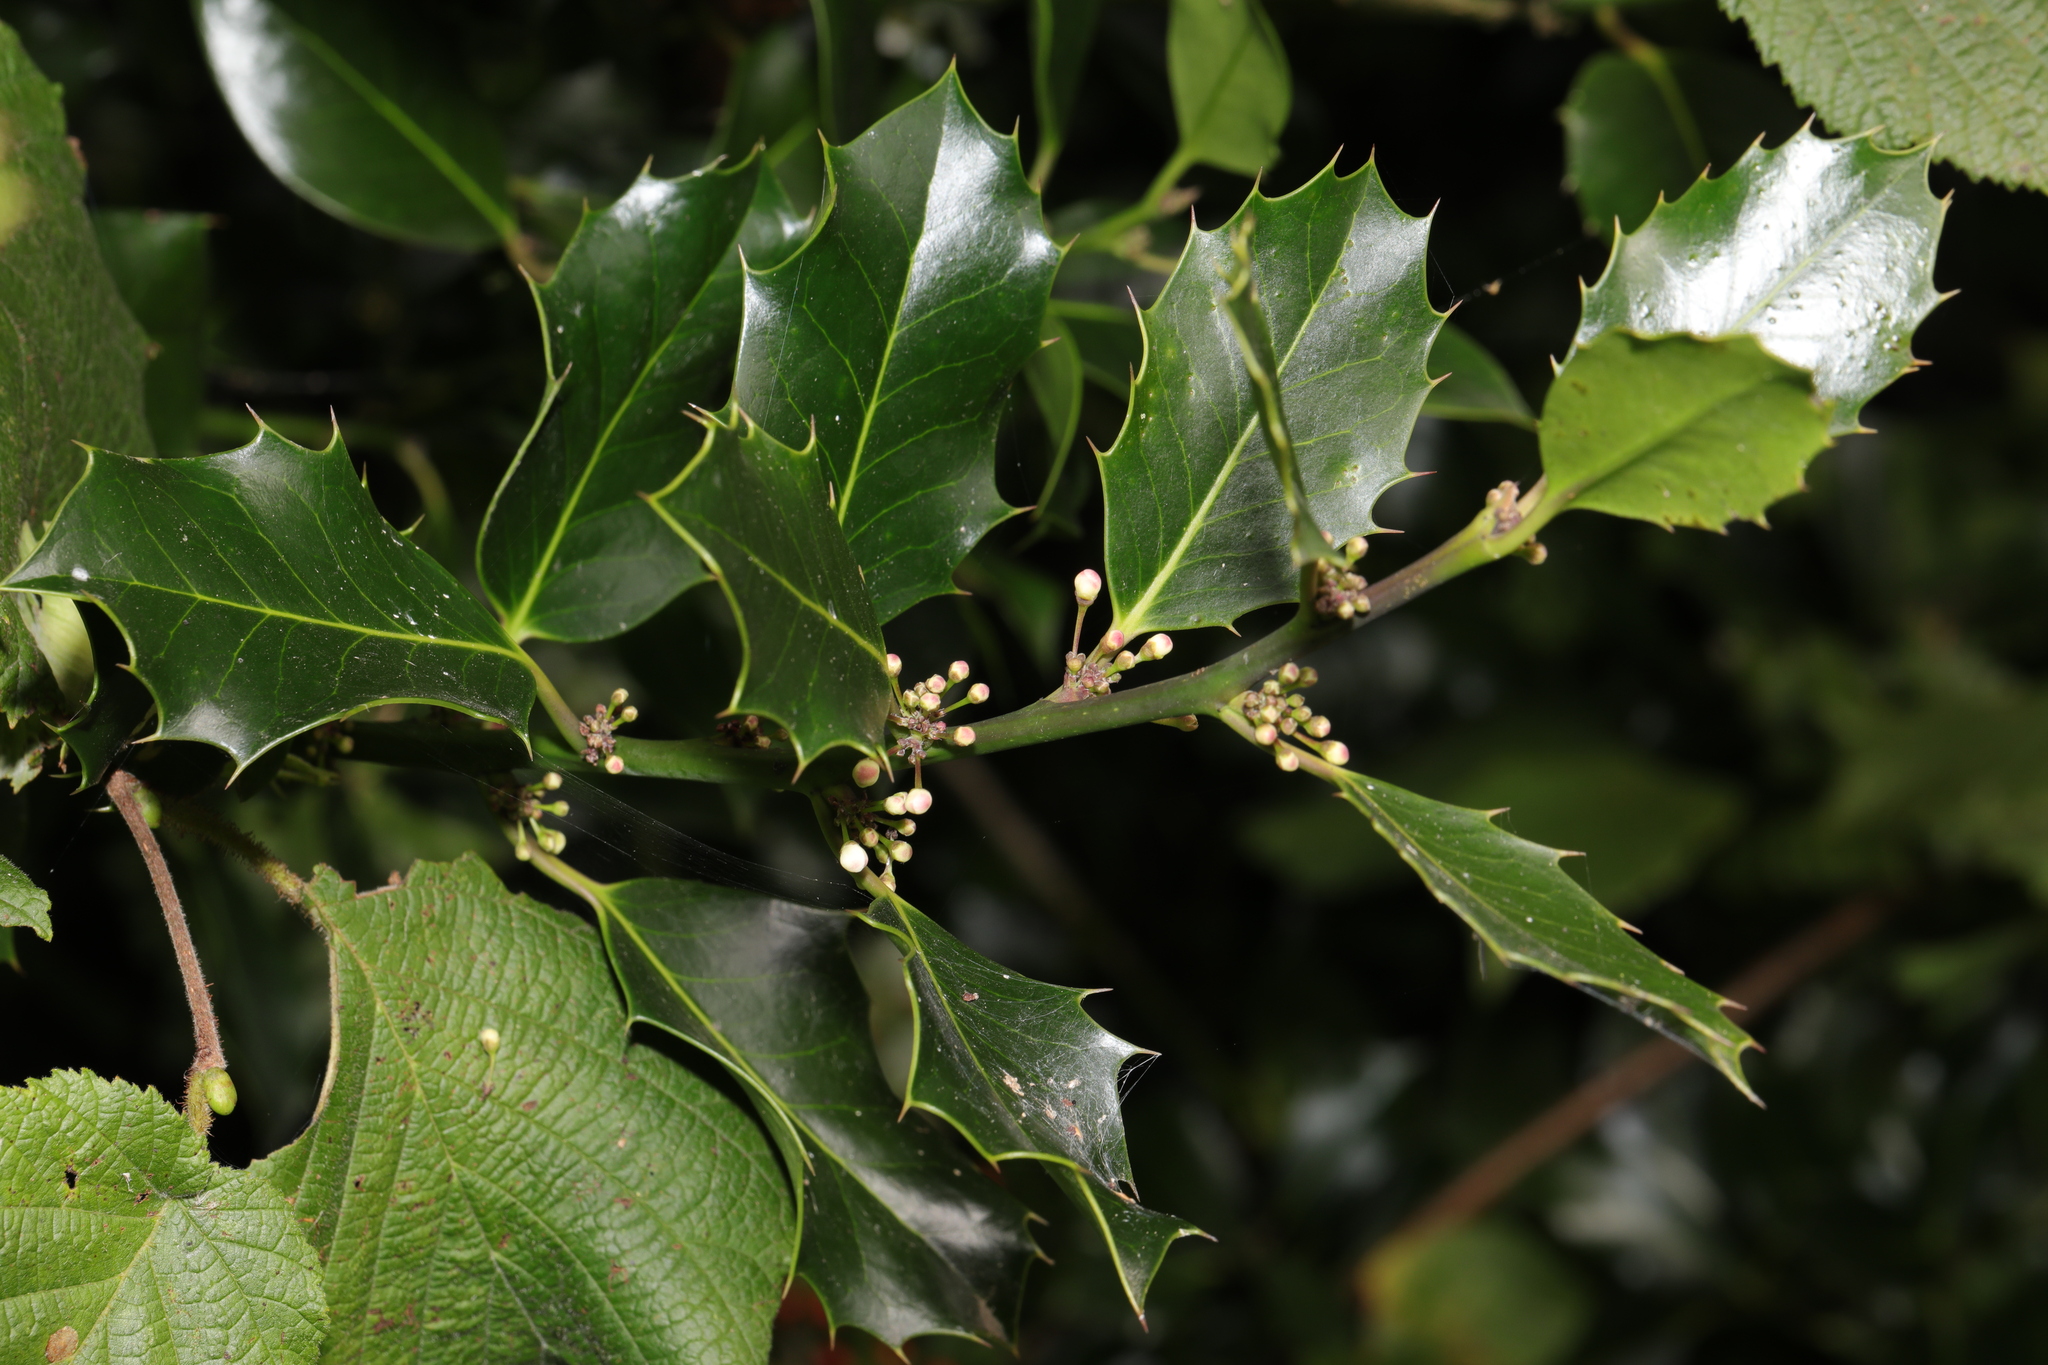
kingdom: Plantae
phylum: Tracheophyta
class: Magnoliopsida
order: Aquifoliales
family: Aquifoliaceae
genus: Ilex
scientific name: Ilex aquifolium
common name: English holly
